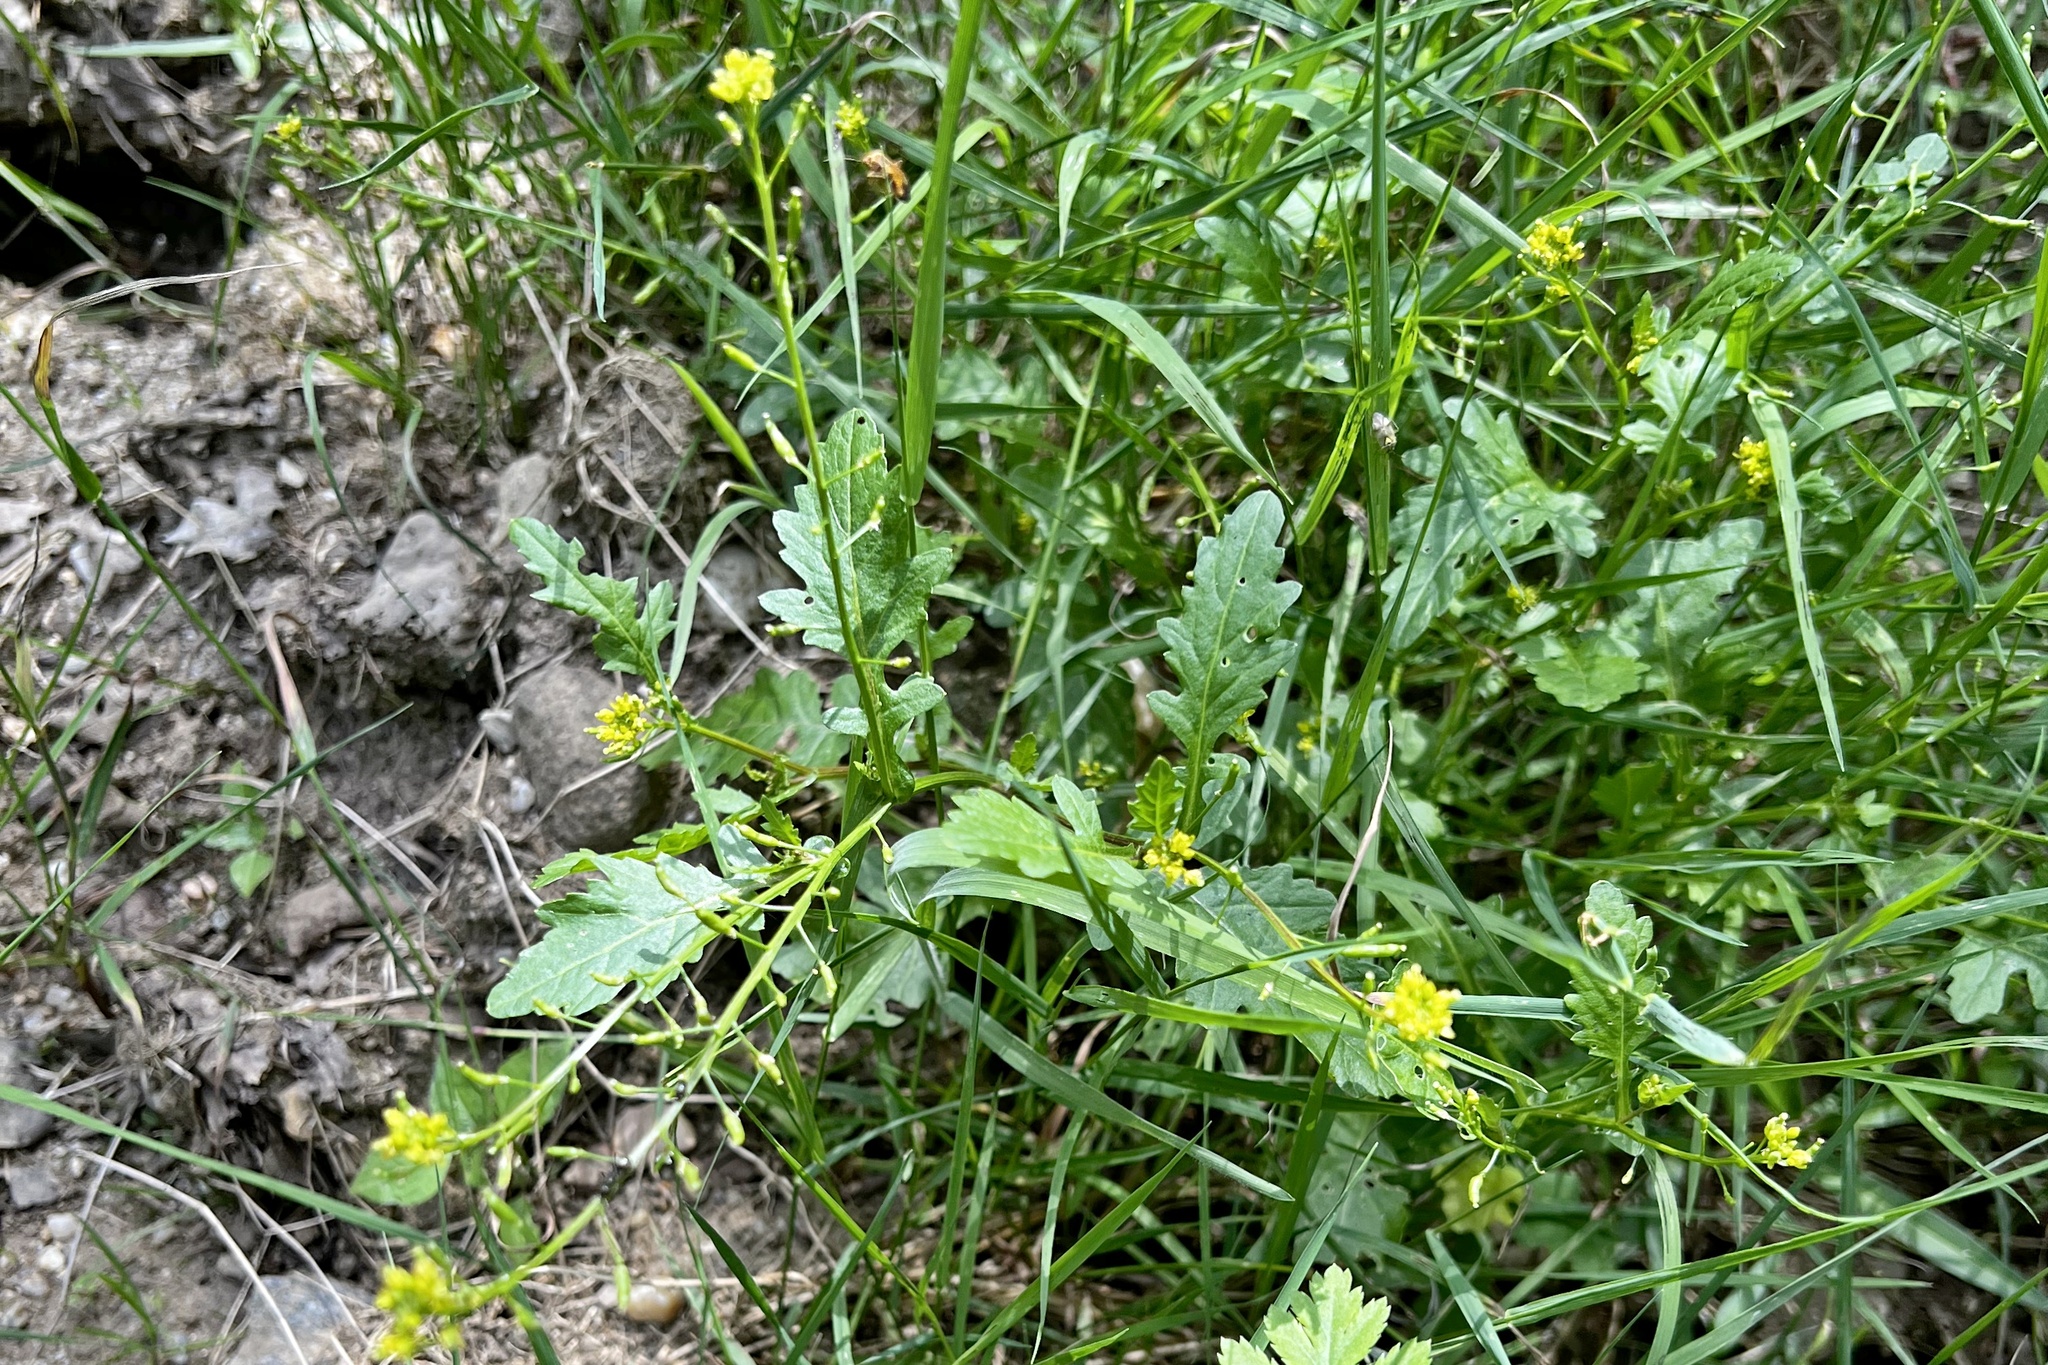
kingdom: Plantae
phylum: Tracheophyta
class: Magnoliopsida
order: Brassicales
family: Brassicaceae
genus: Rorippa
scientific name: Rorippa palustris
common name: Marsh yellow-cress
